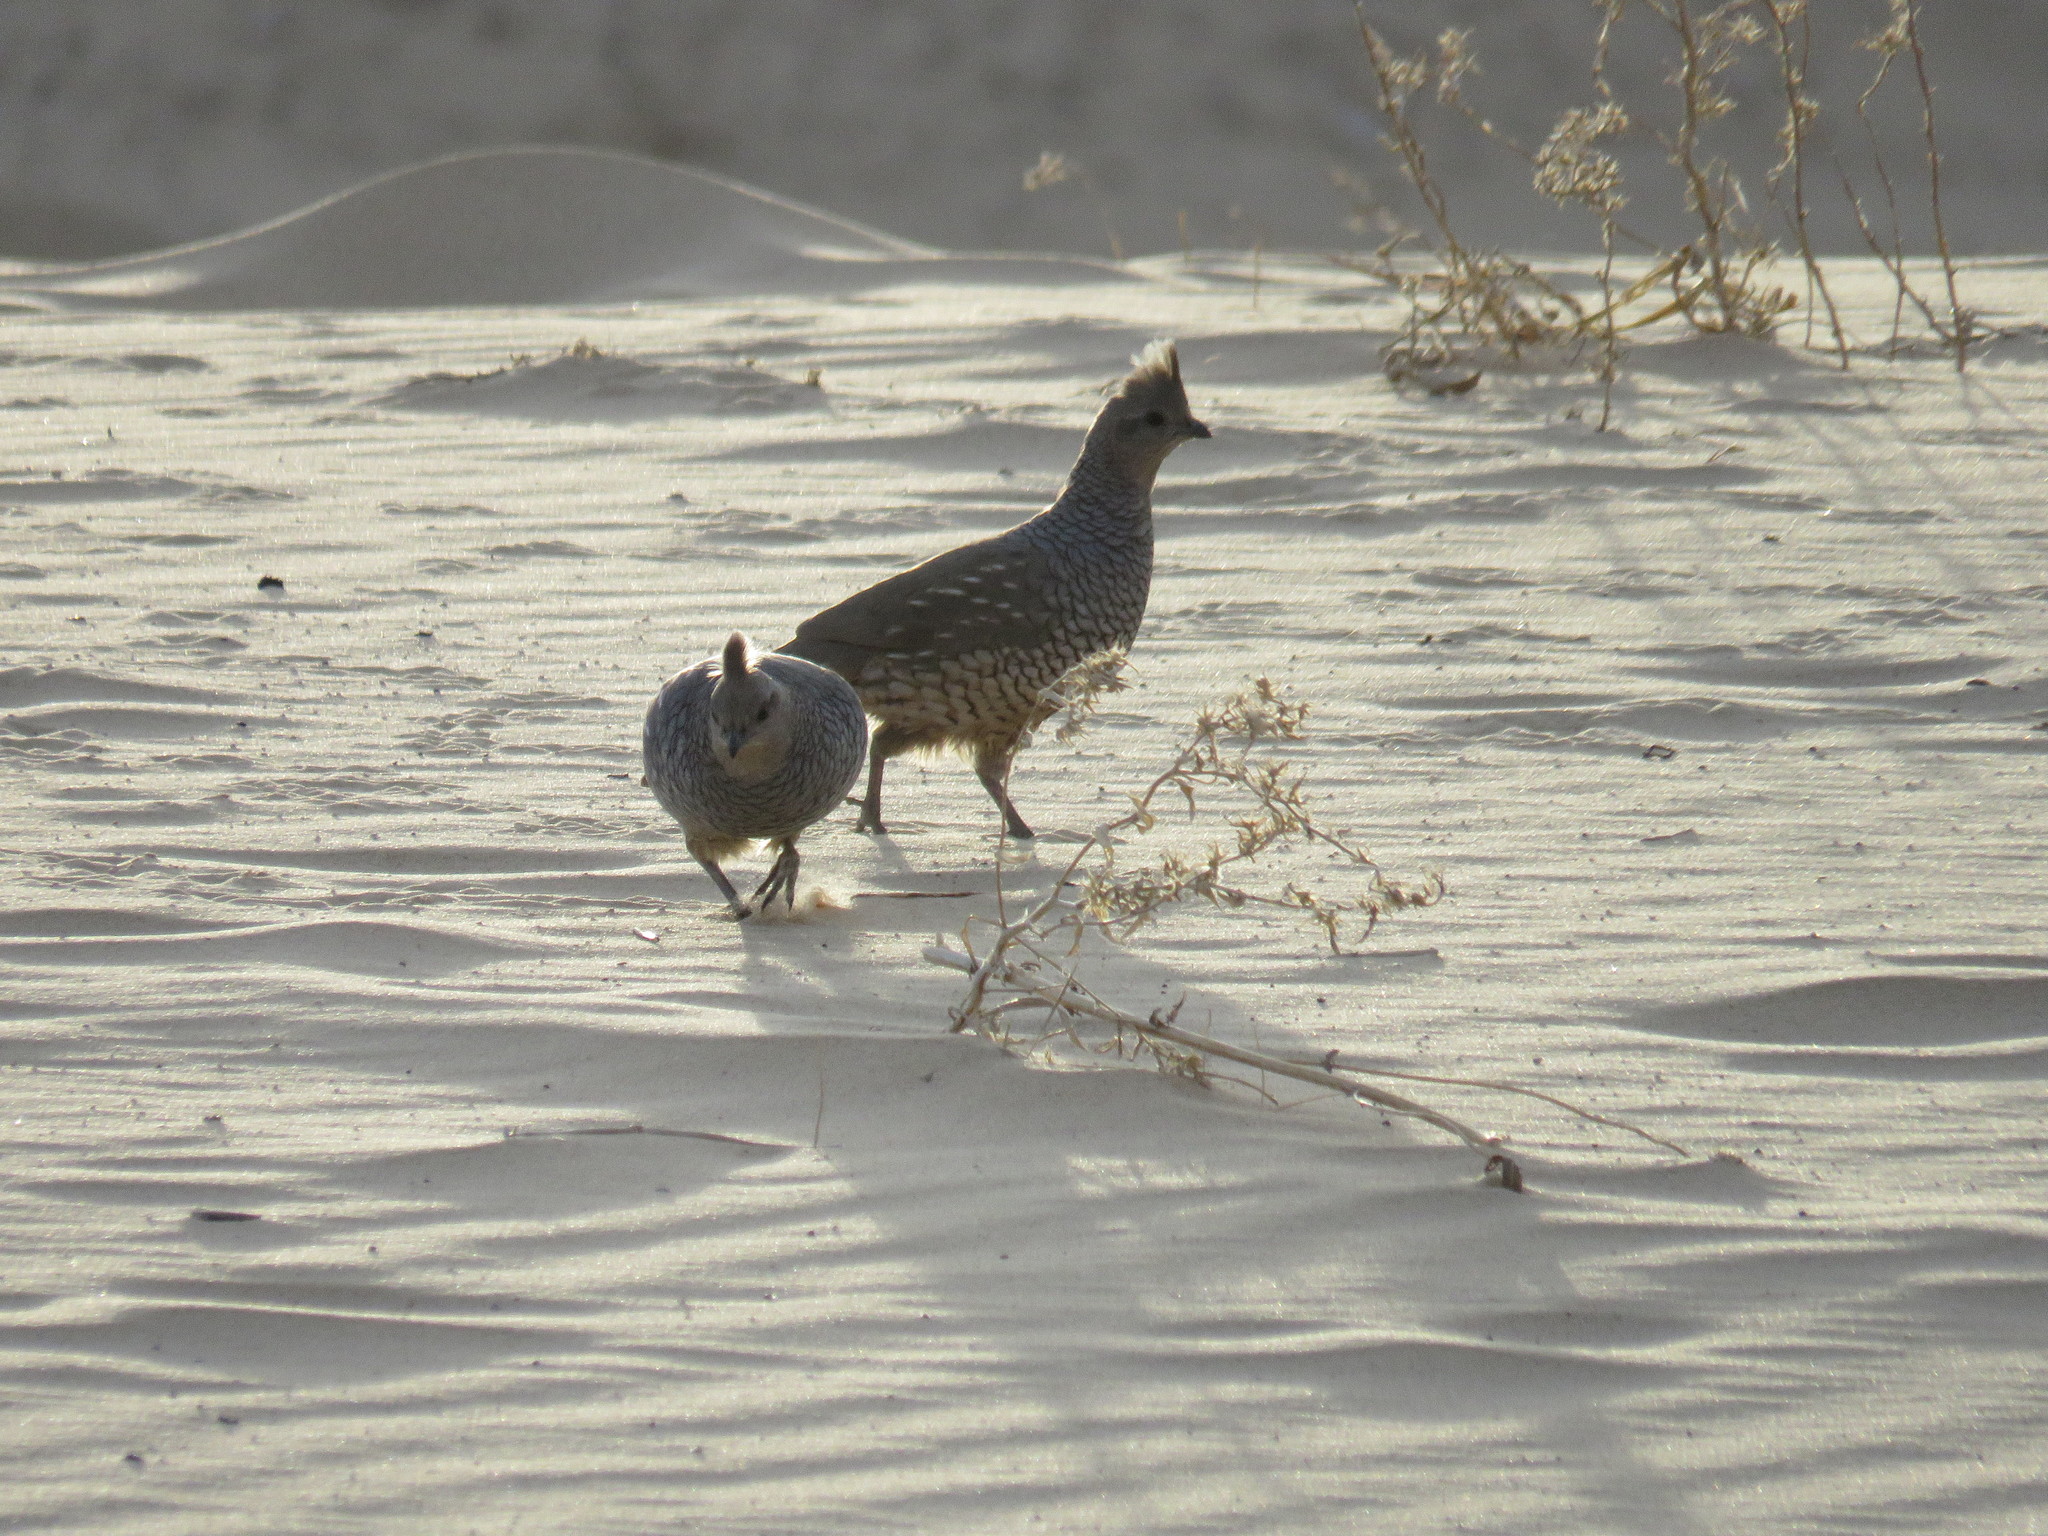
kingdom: Animalia
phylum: Chordata
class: Aves
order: Galliformes
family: Odontophoridae
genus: Callipepla
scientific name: Callipepla squamata
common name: Scaled quail
